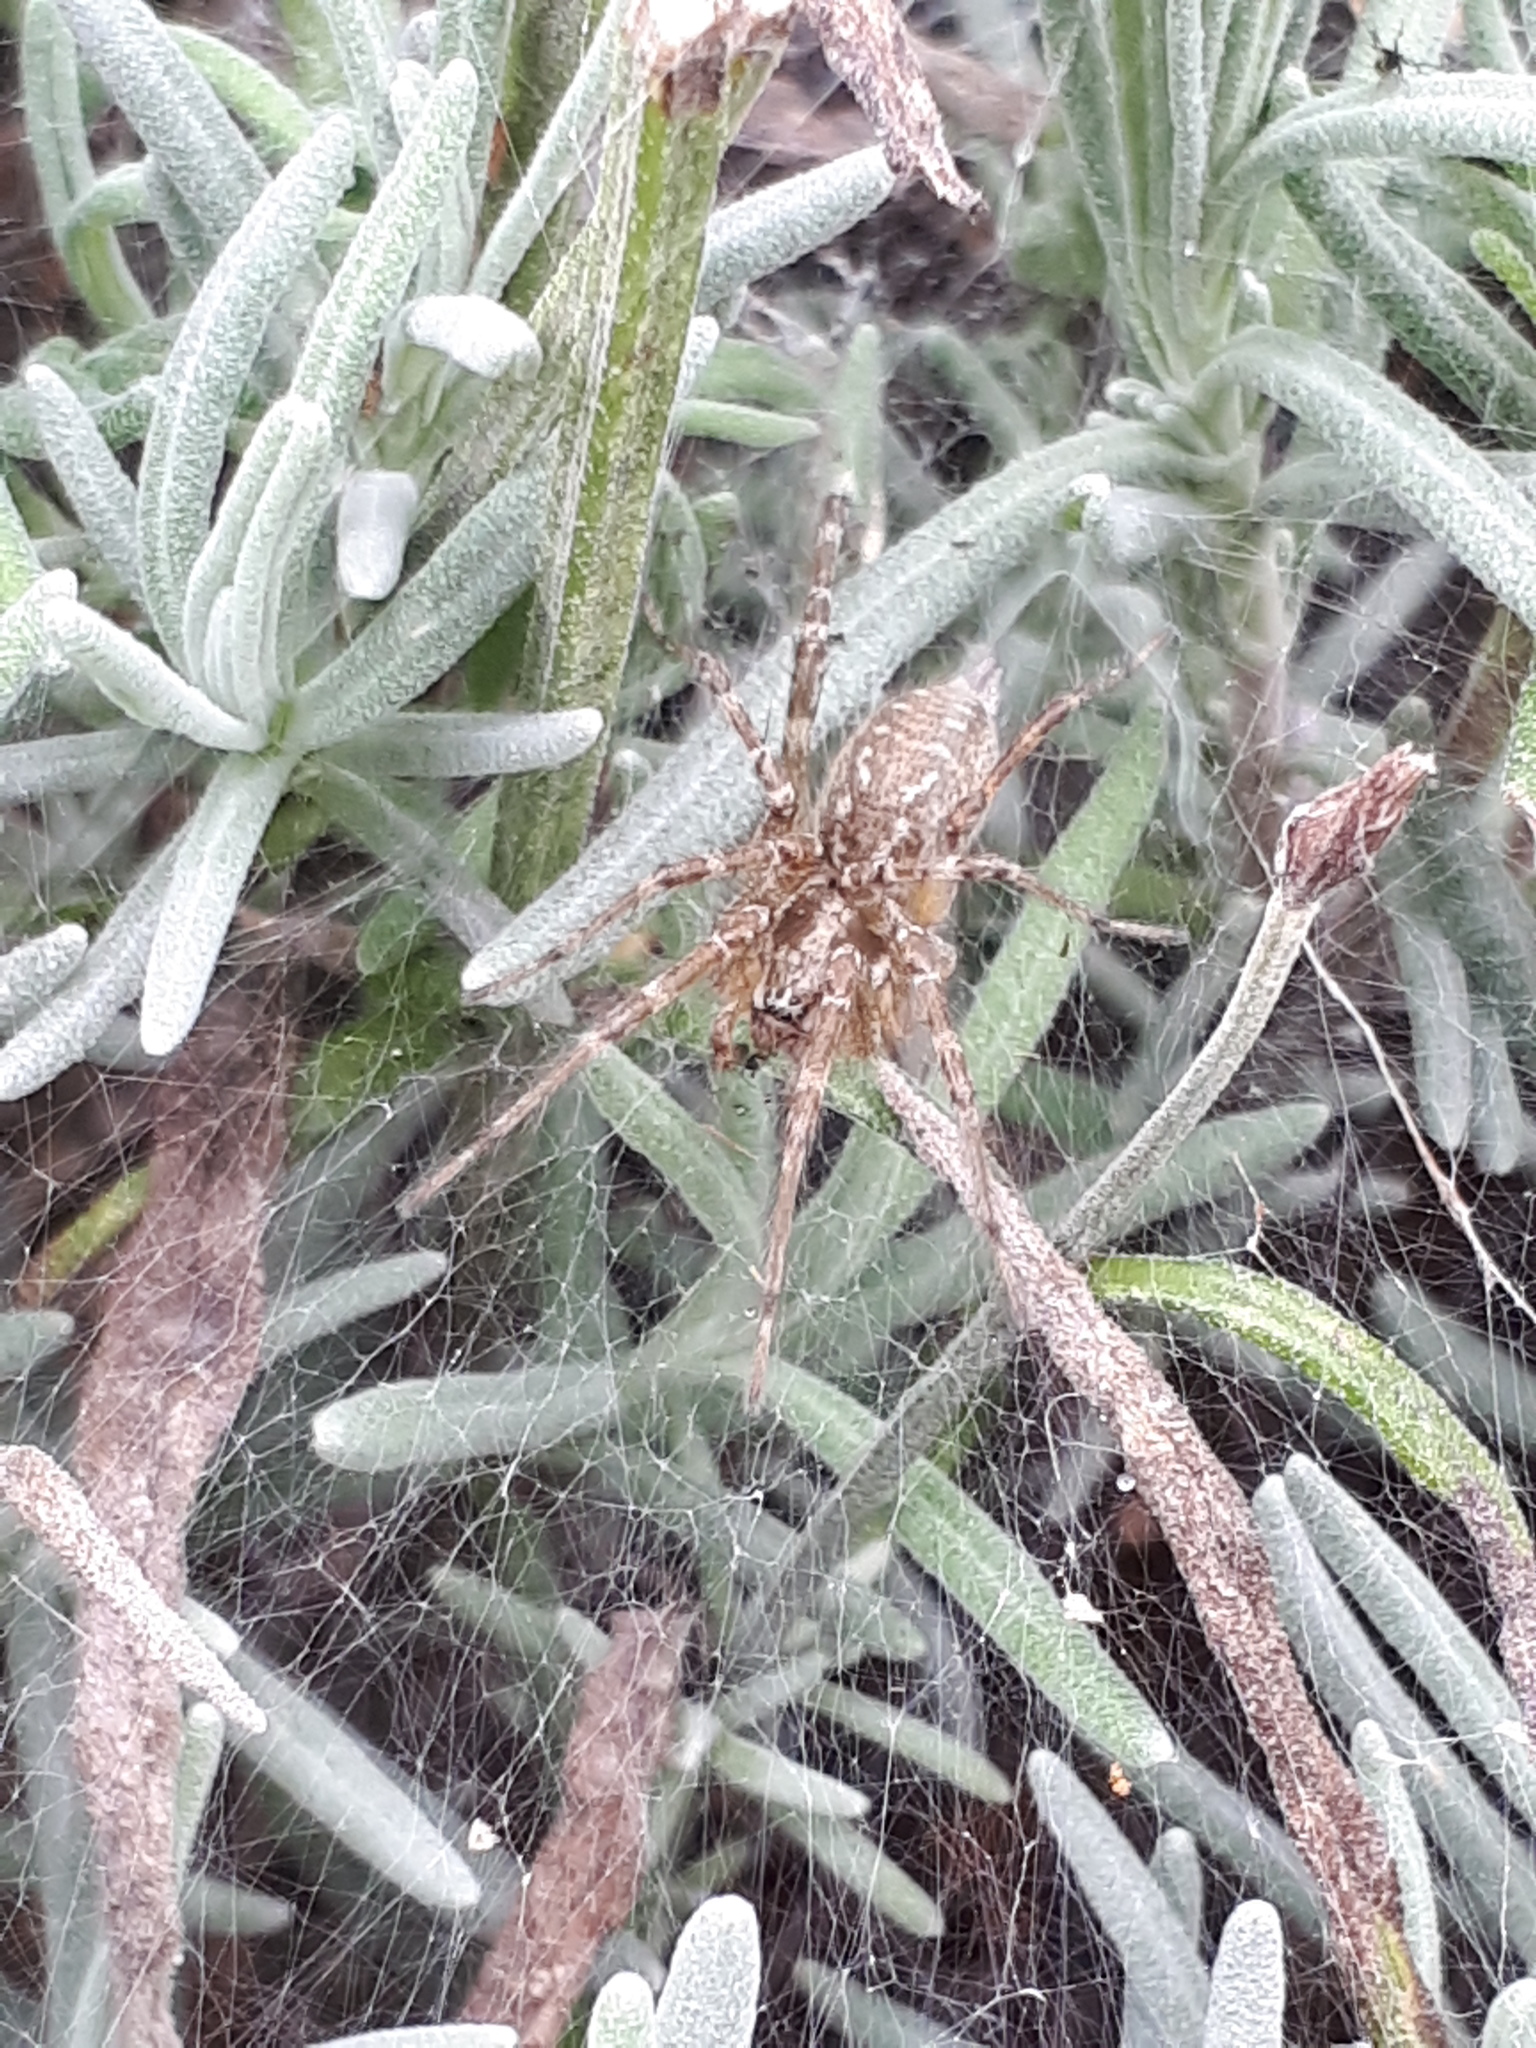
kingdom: Animalia
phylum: Arthropoda
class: Arachnida
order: Araneae
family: Agelenidae
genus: Allagelena
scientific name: Allagelena gracilens
